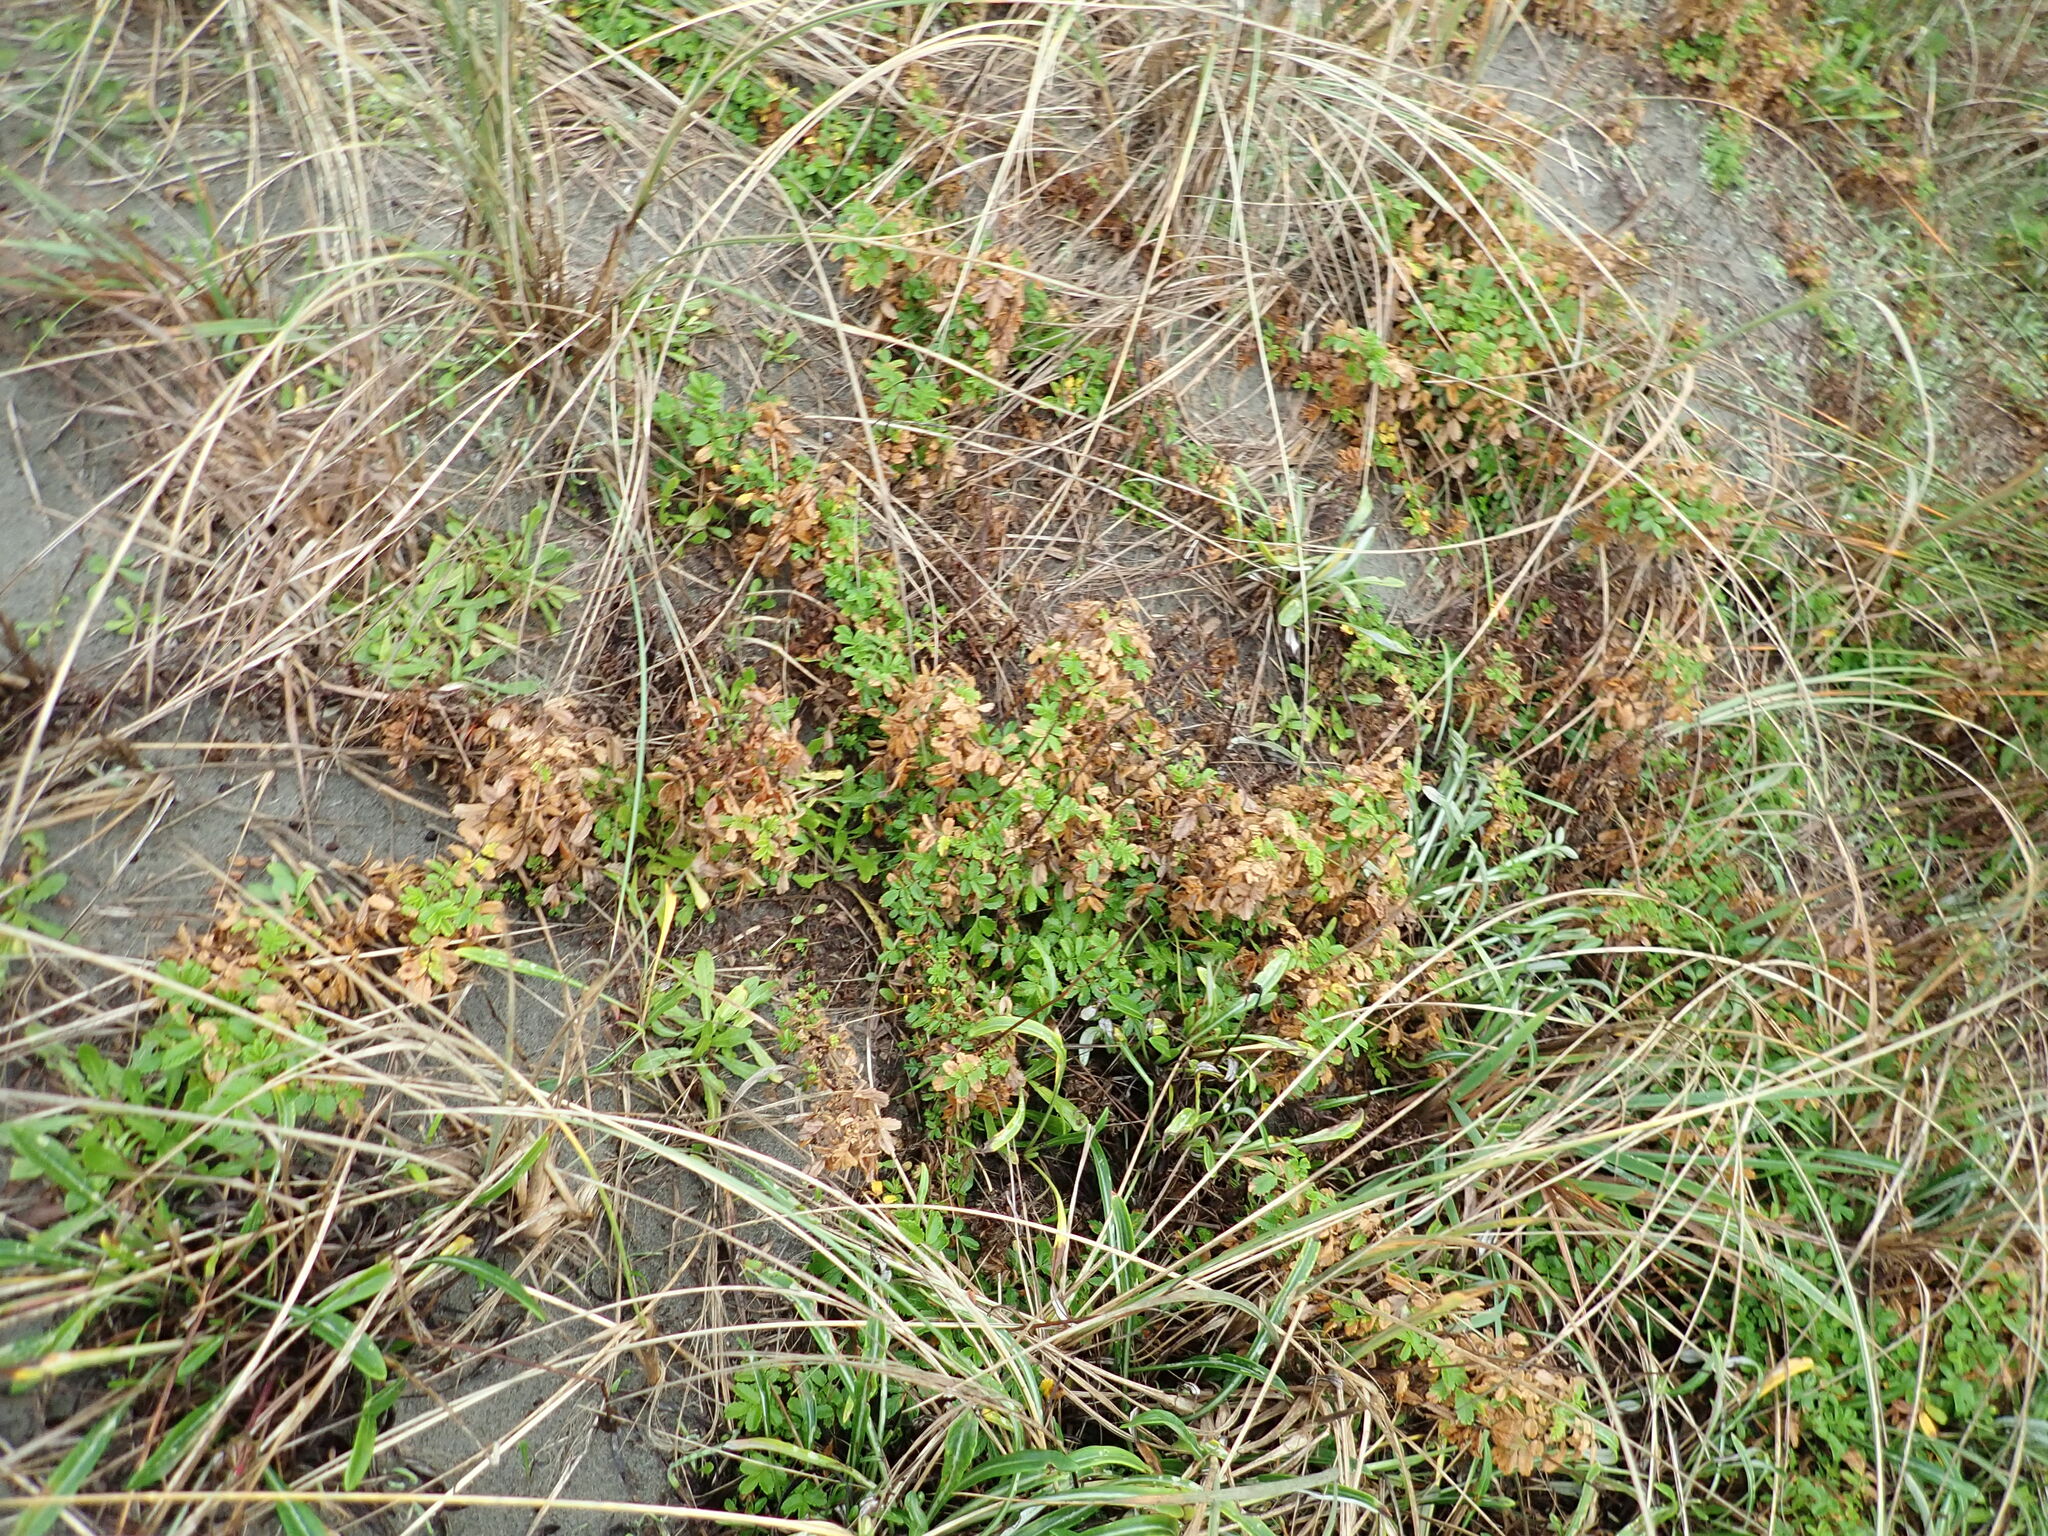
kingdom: Plantae
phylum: Tracheophyta
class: Magnoliopsida
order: Rosales
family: Rosaceae
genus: Acaena
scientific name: Acaena novae-zelandiae
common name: Pirri-pirri-bur
